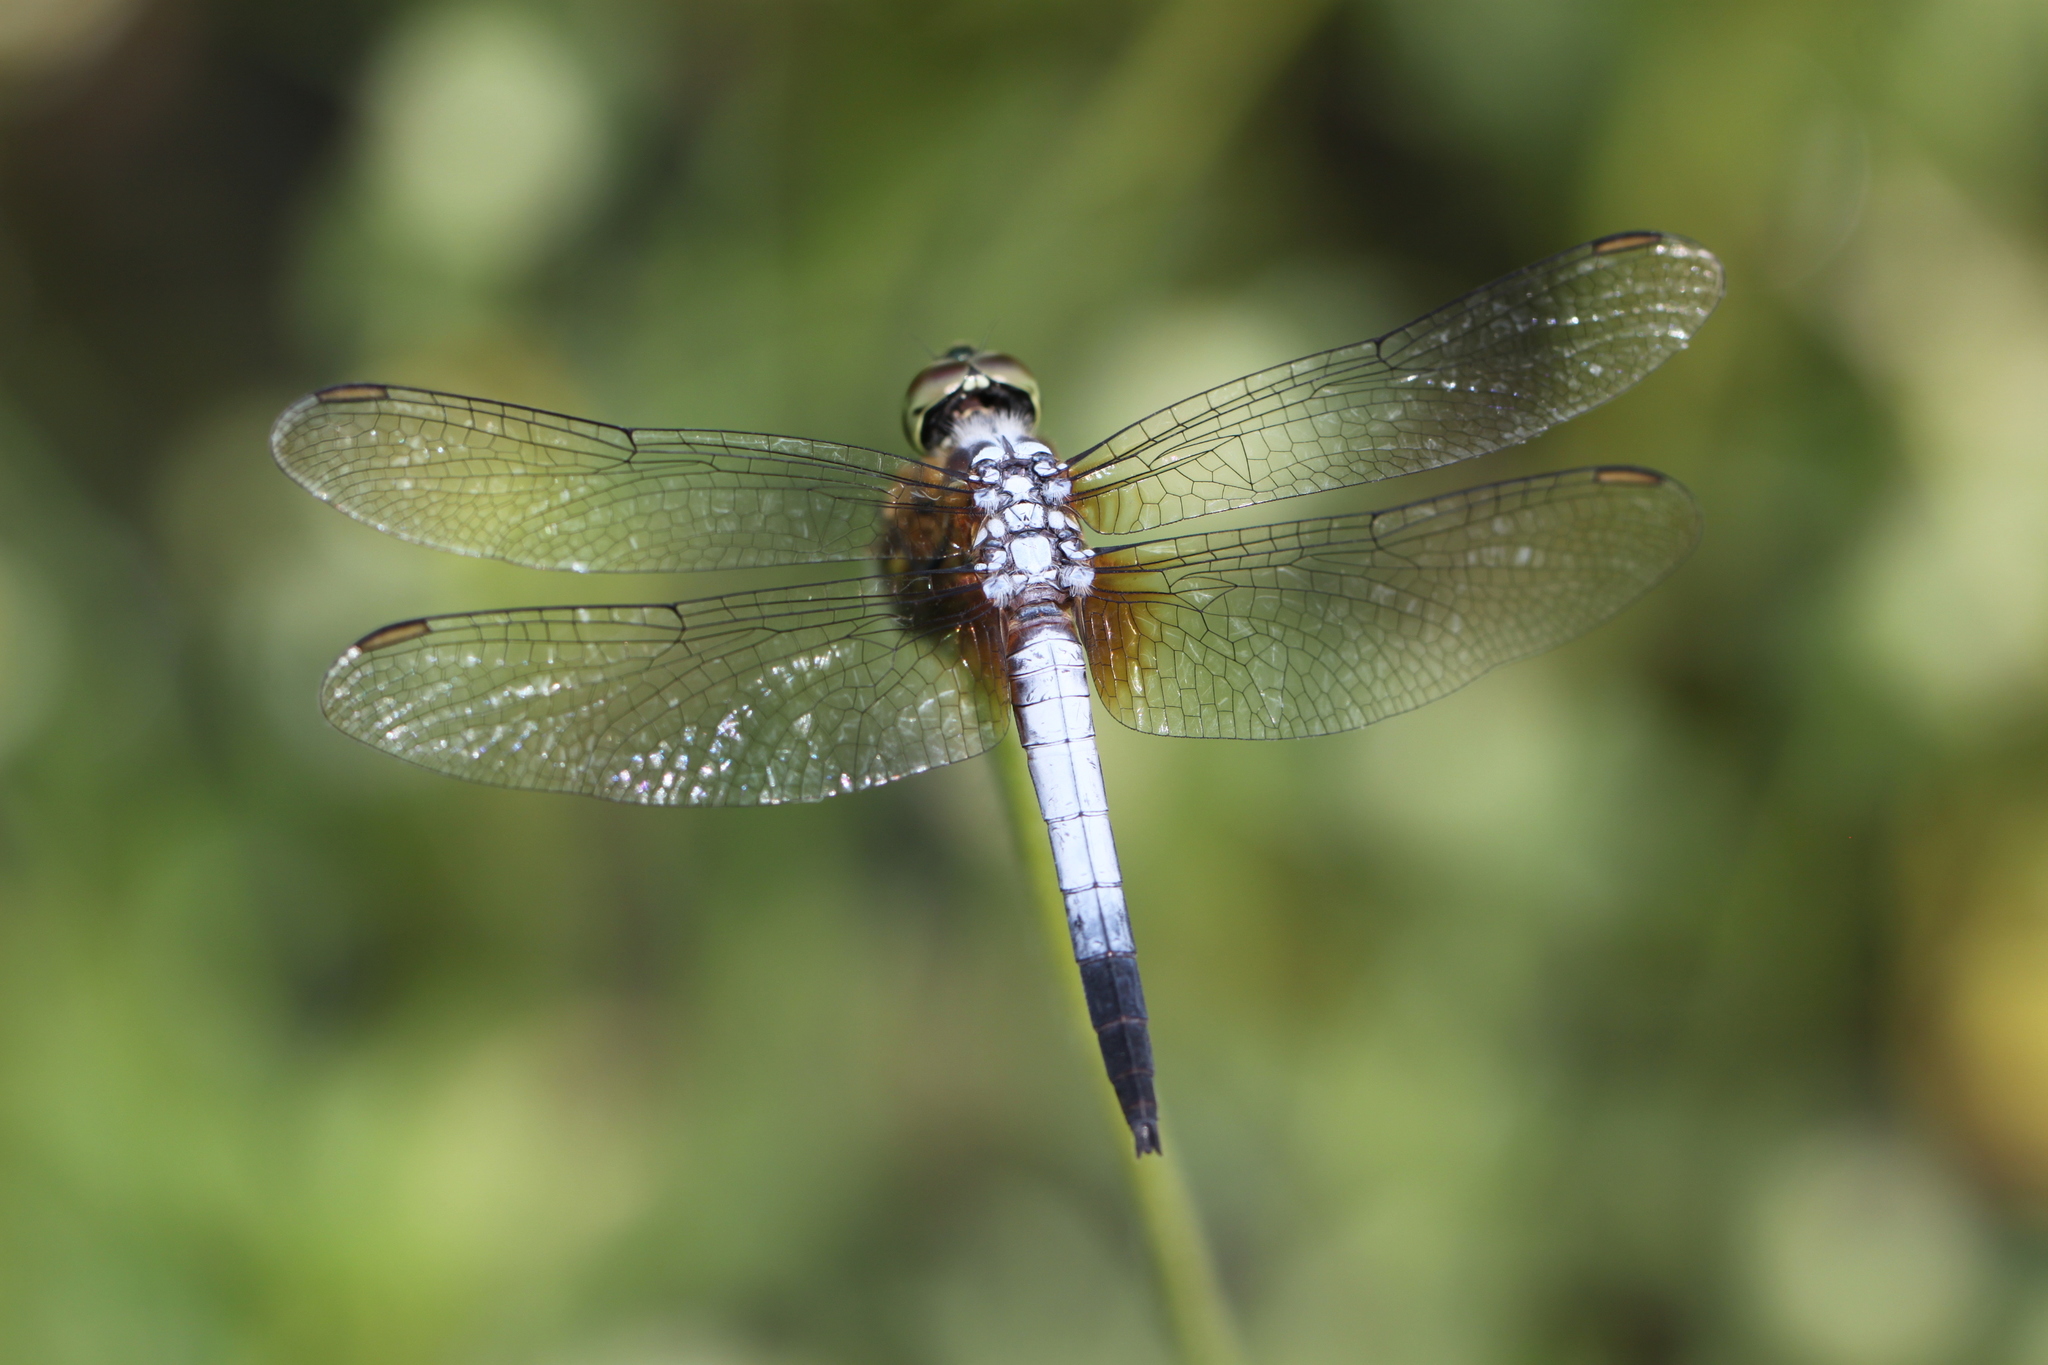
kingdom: Animalia
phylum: Arthropoda
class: Insecta
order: Odonata
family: Libellulidae
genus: Brachydiplax
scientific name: Brachydiplax chalybea
